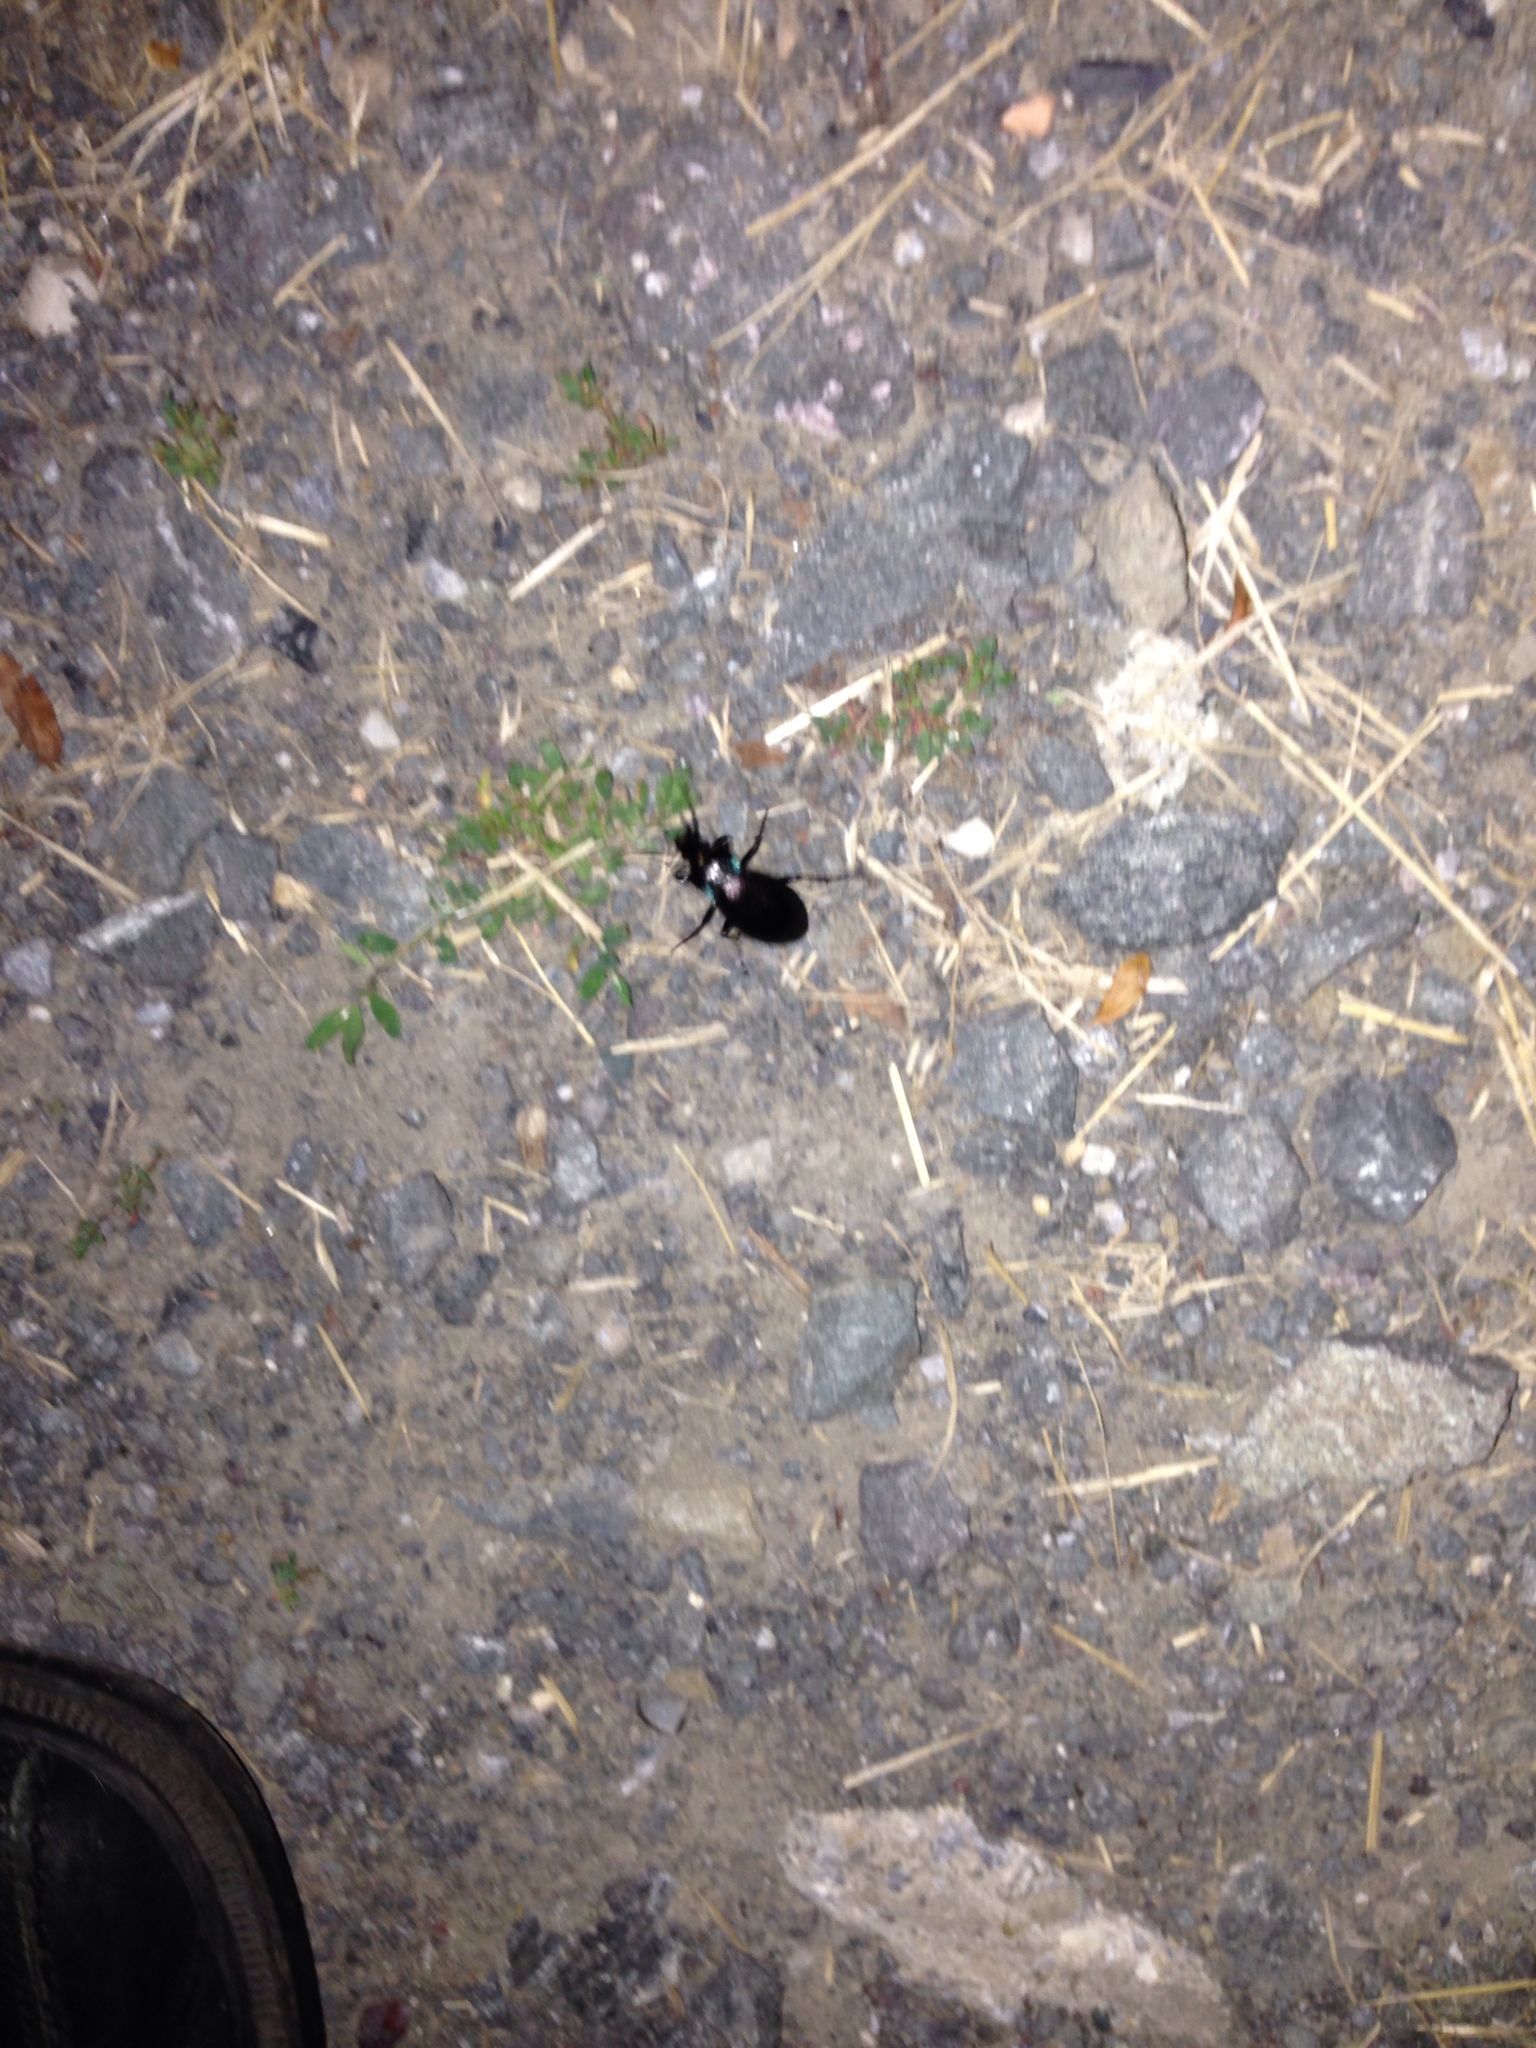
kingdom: Animalia
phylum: Arthropoda
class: Insecta
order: Coleoptera
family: Carabidae
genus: Carabus
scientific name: Carabus
